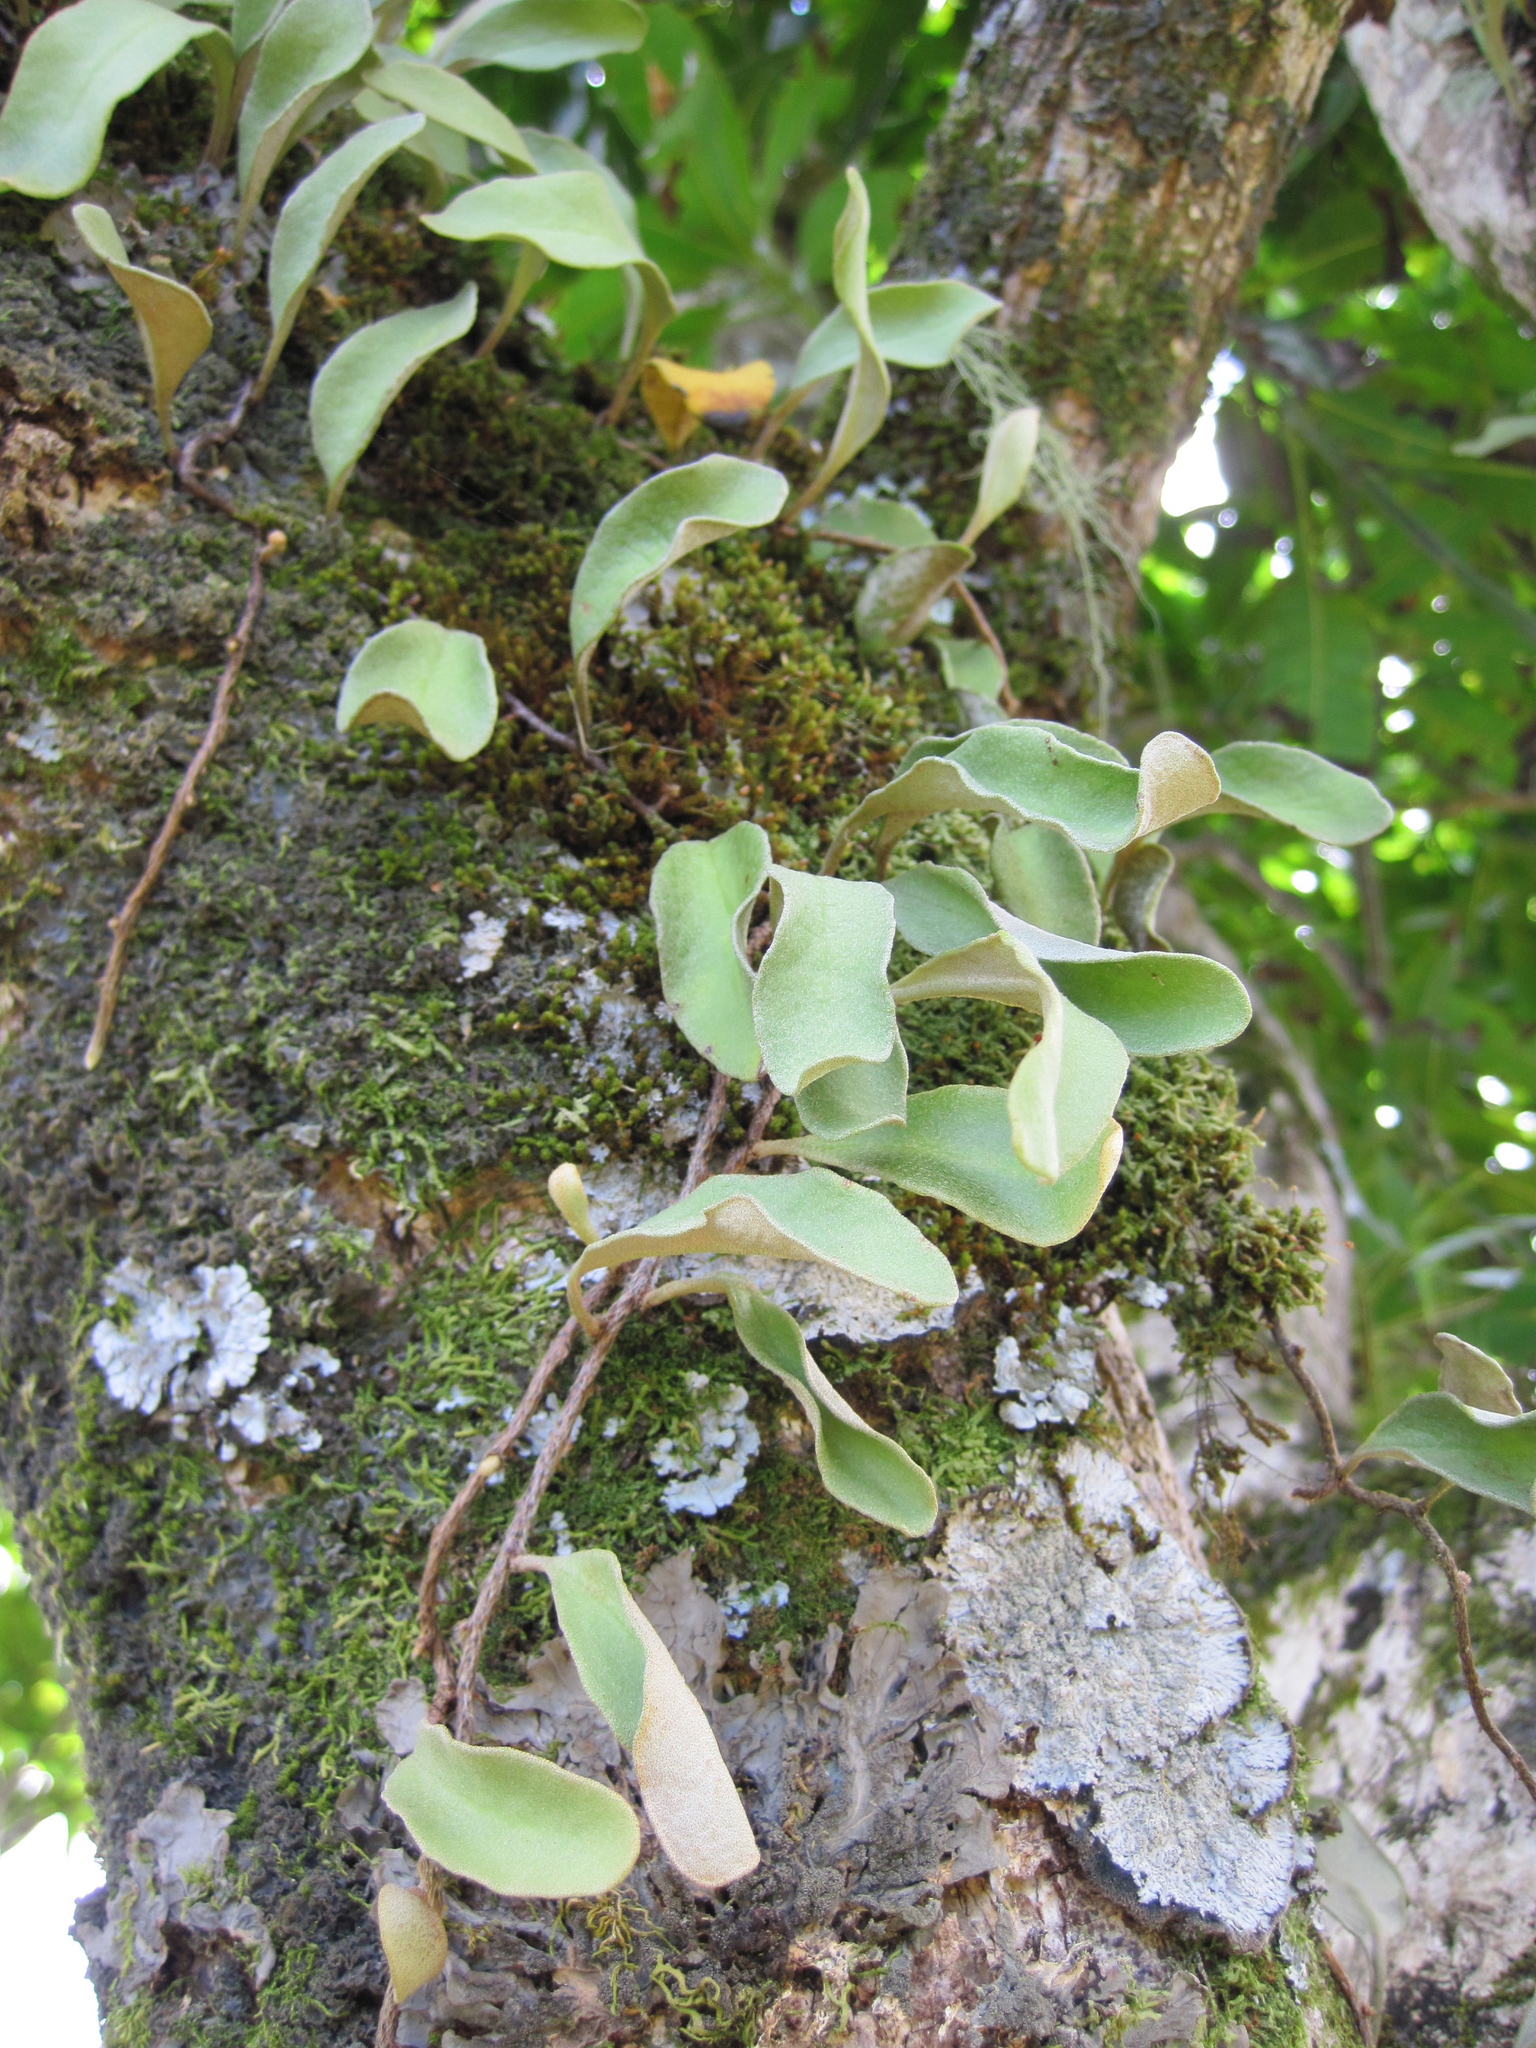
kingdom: Plantae
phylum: Tracheophyta
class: Polypodiopsida
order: Polypodiales
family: Polypodiaceae
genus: Pyrrosia
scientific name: Pyrrosia serpens
